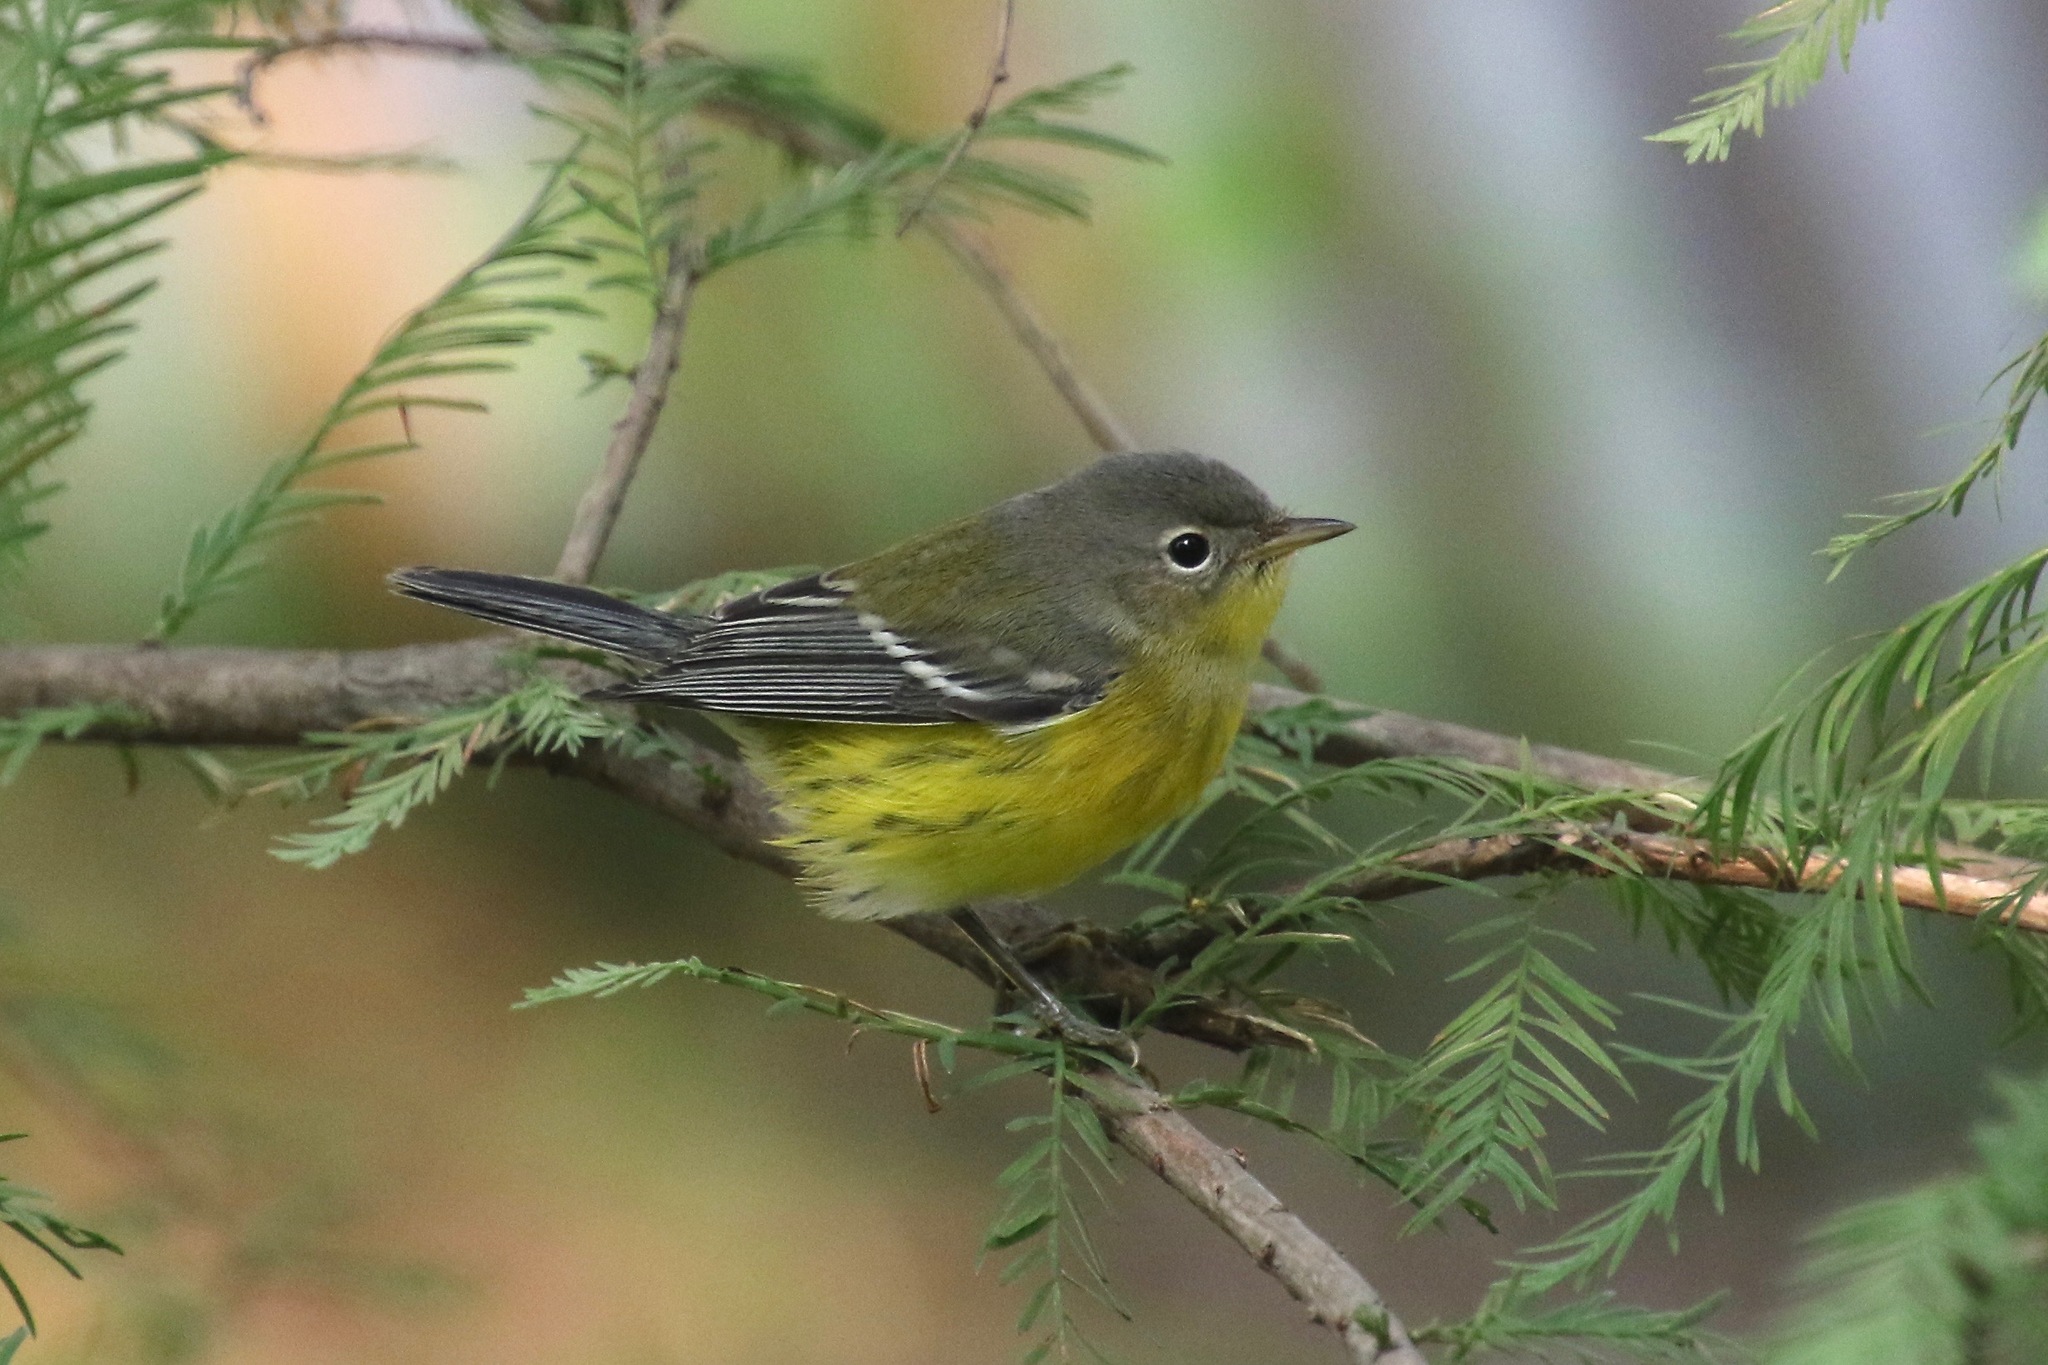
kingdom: Animalia
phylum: Chordata
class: Aves
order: Passeriformes
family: Parulidae
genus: Setophaga
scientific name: Setophaga magnolia
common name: Magnolia warbler
